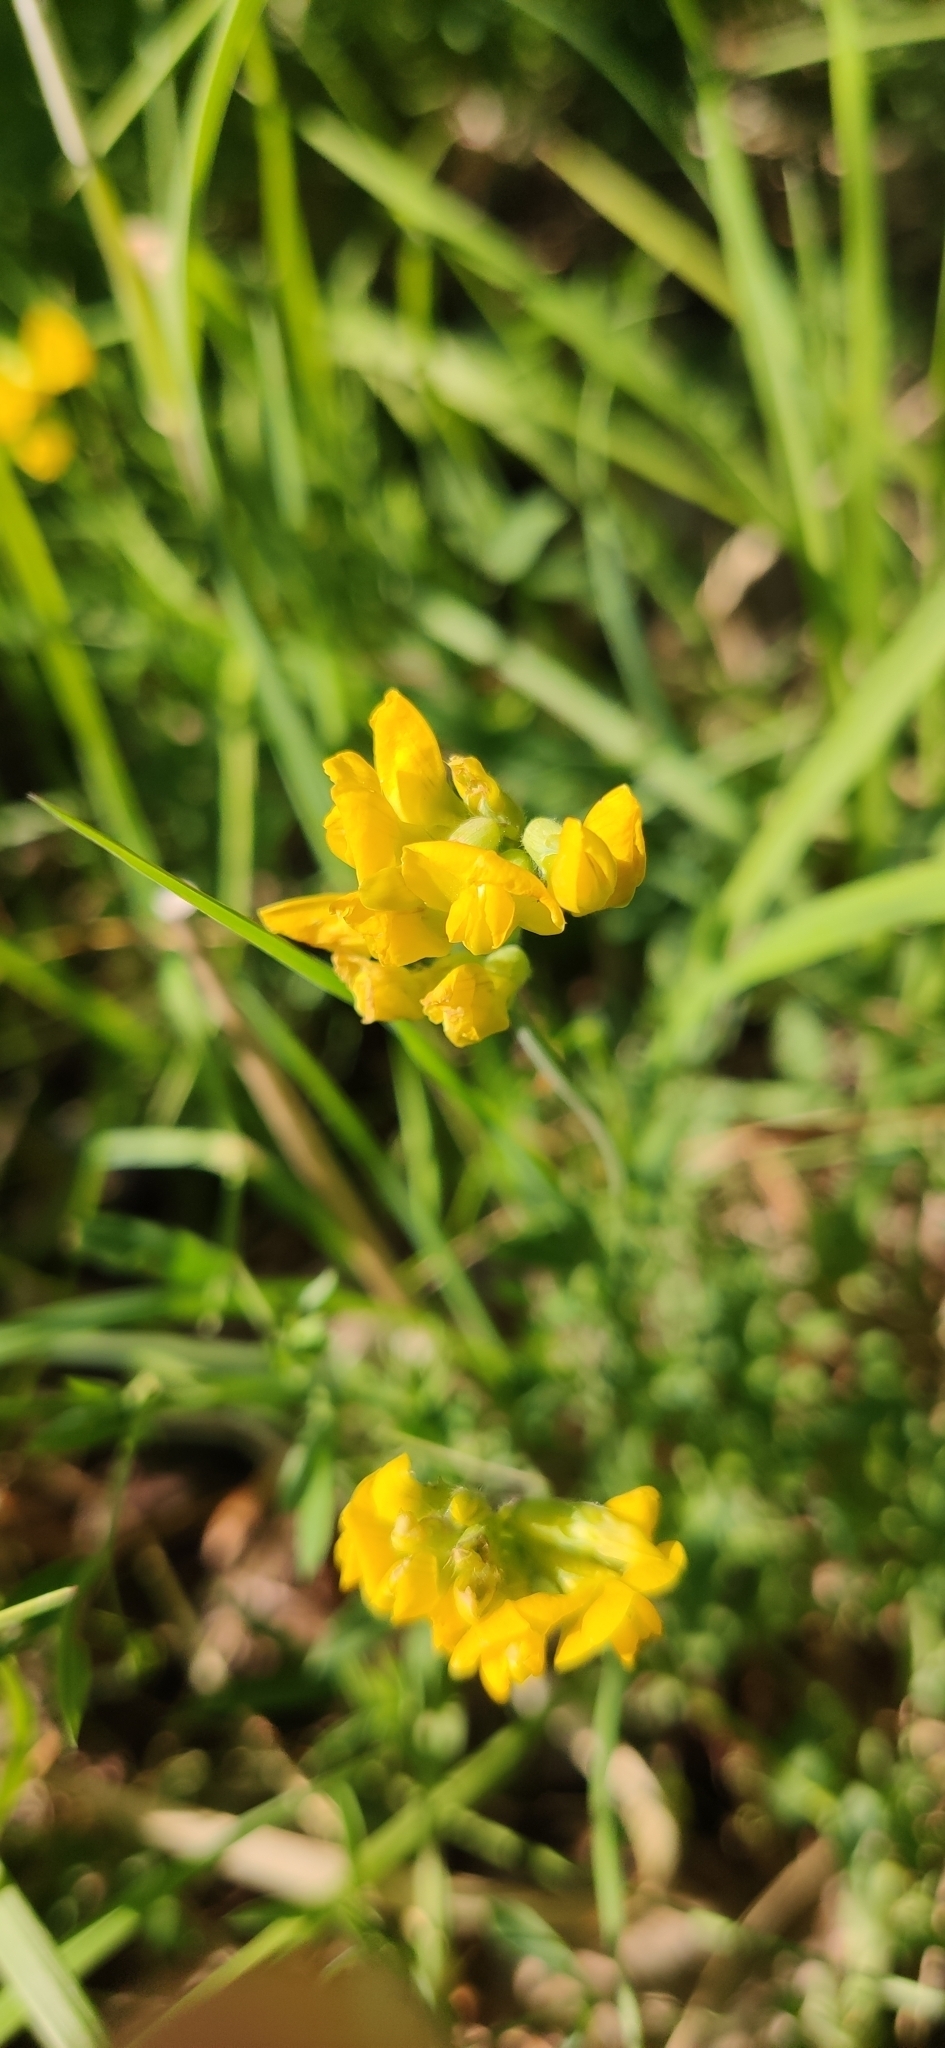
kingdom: Plantae
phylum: Tracheophyta
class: Magnoliopsida
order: Fabales
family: Fabaceae
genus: Lathyrus
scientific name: Lathyrus pratensis
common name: Meadow vetchling
